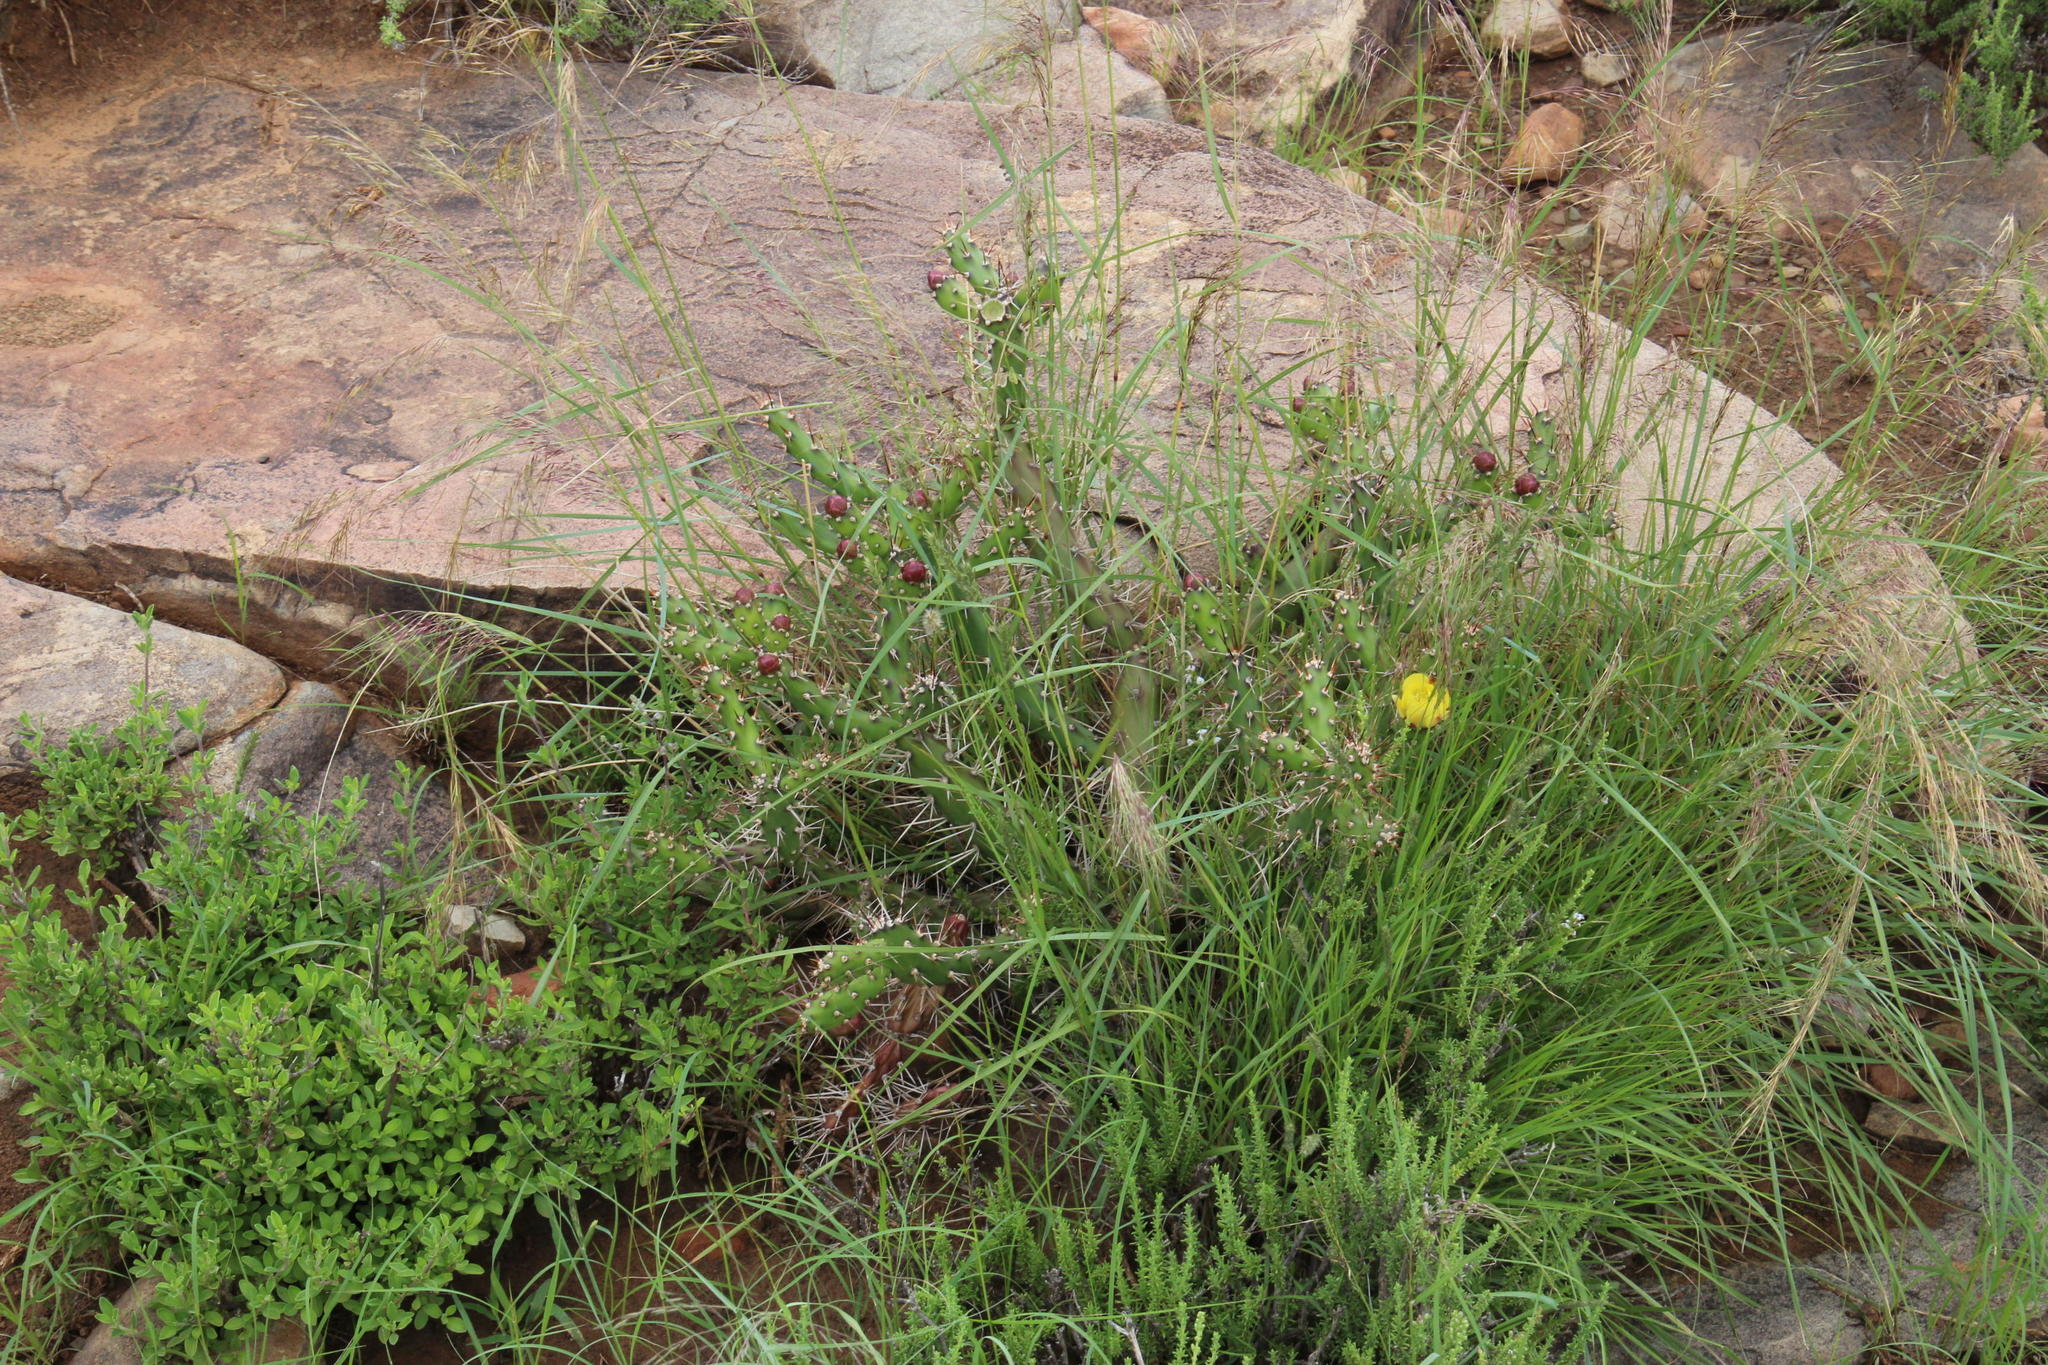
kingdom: Plantae
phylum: Tracheophyta
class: Magnoliopsida
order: Caryophyllales
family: Cactaceae
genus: Opuntia
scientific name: Opuntia aurantiaca
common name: Jointed pricklypear
